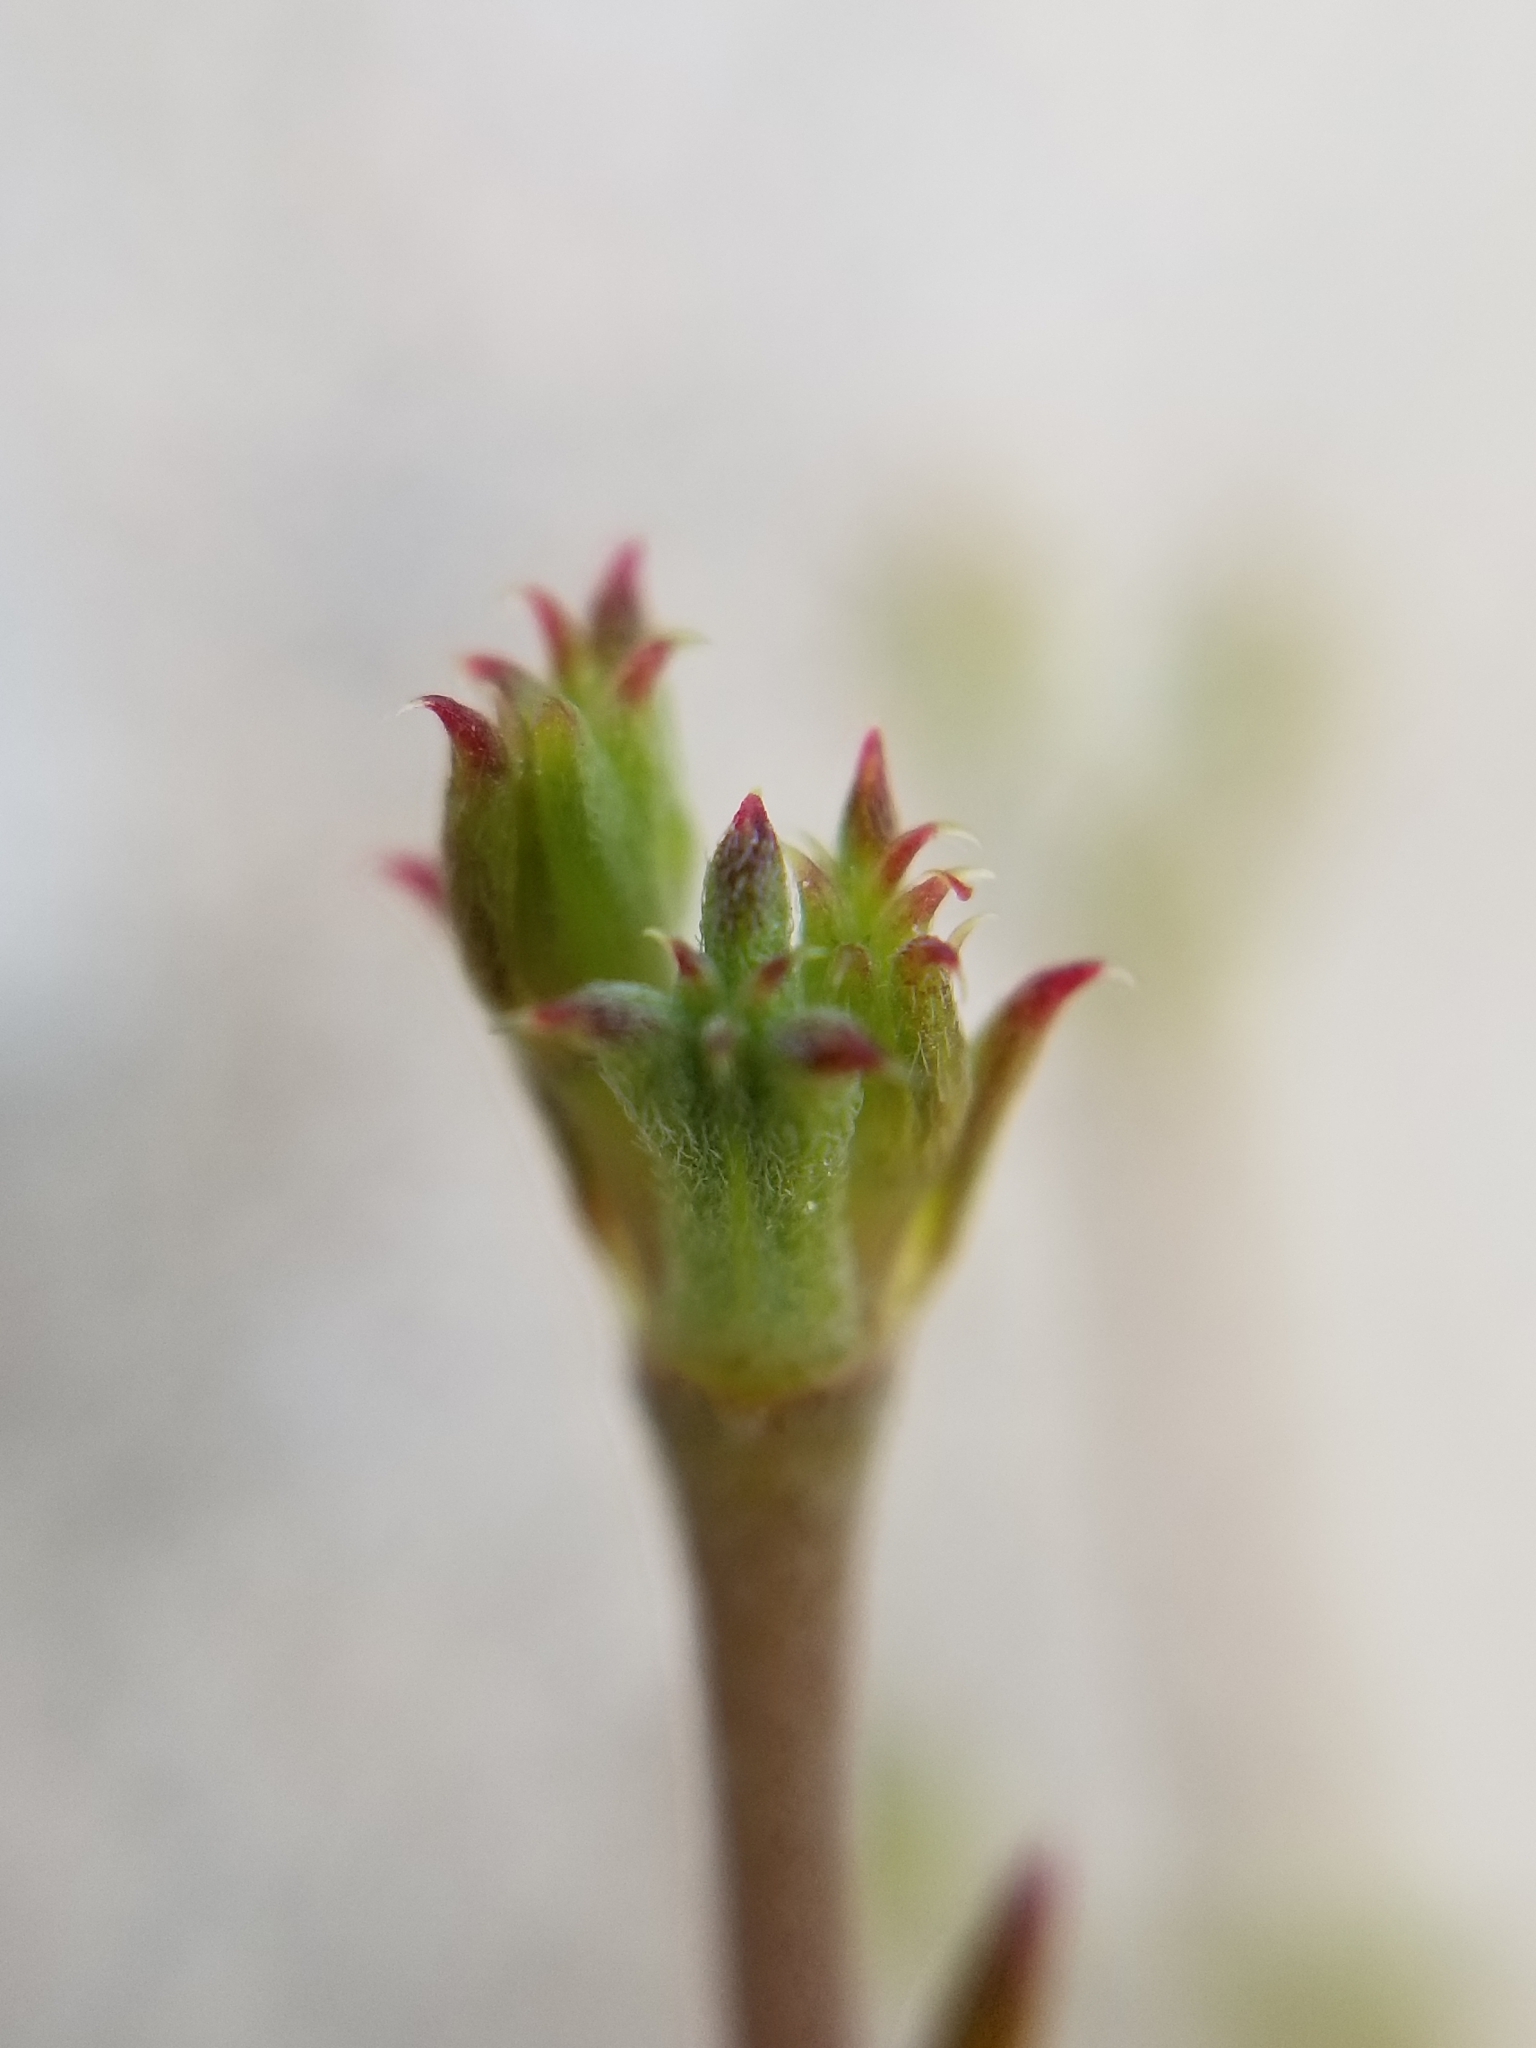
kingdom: Plantae
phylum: Tracheophyta
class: Magnoliopsida
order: Caryophyllales
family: Polygonaceae
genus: Chorizanthe
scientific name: Chorizanthe brevicornu
